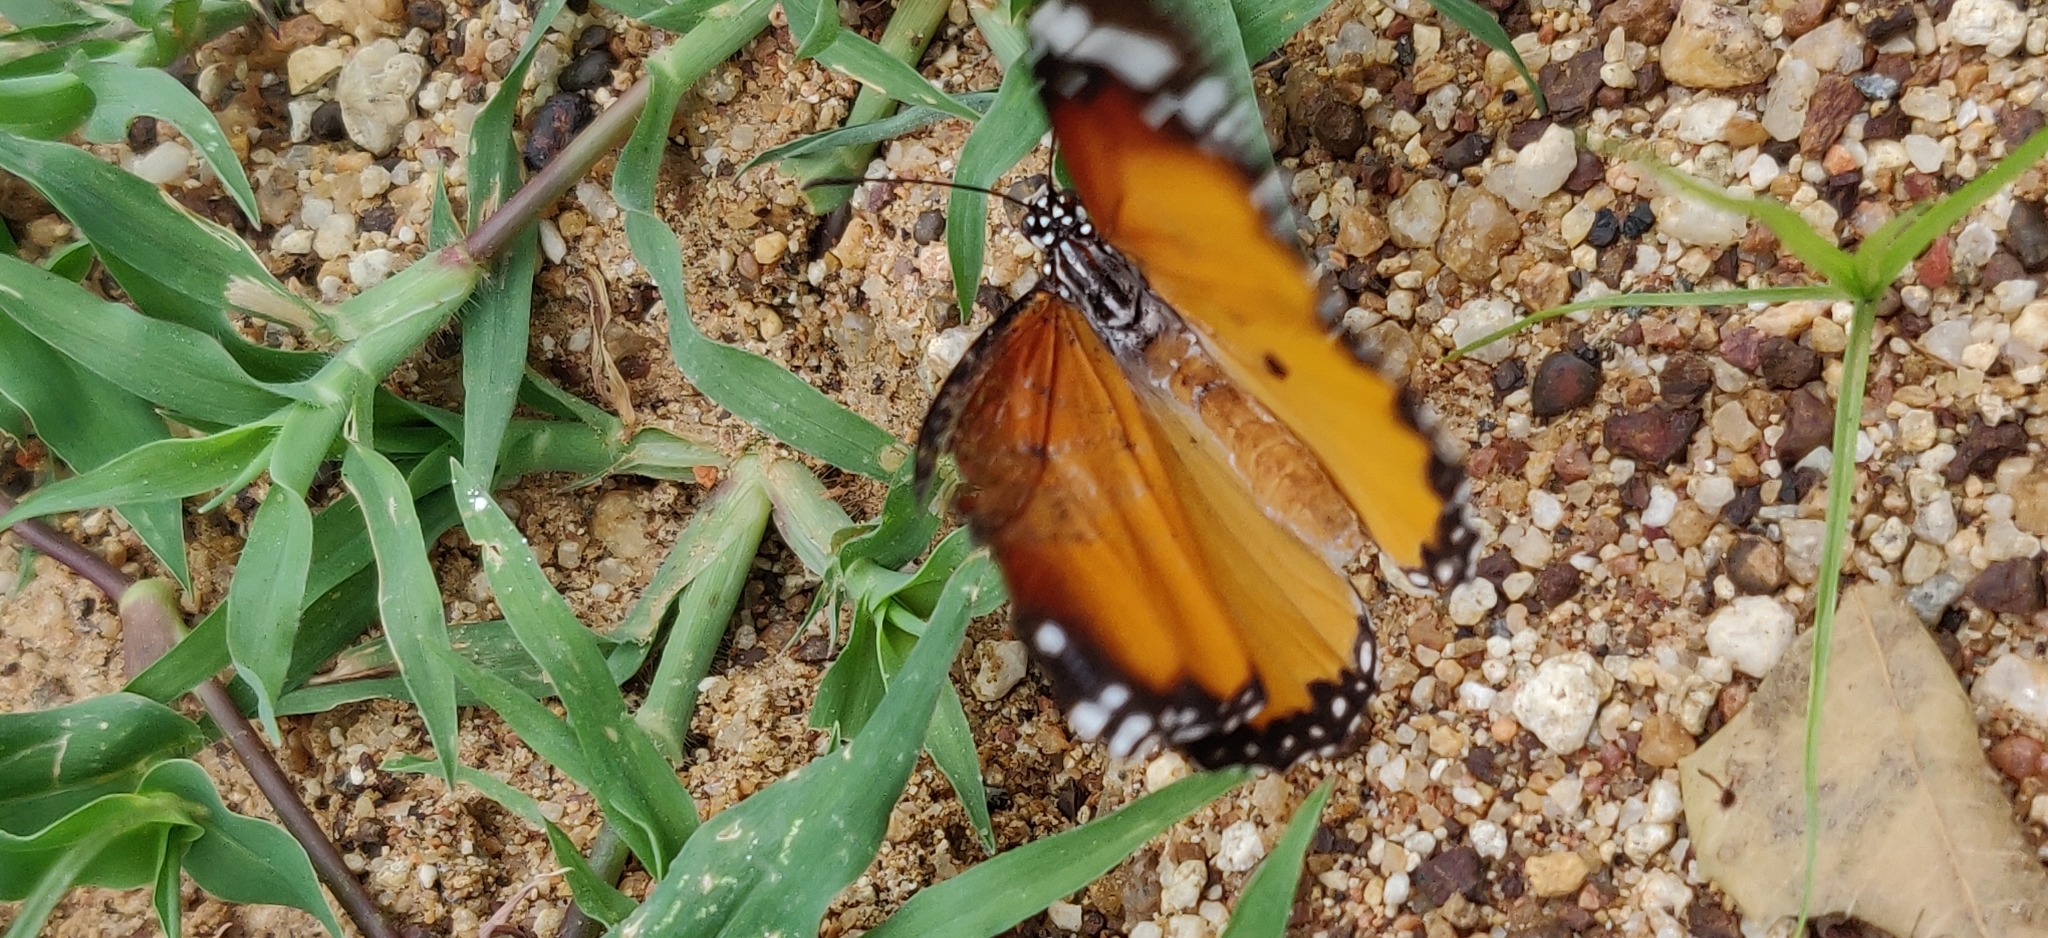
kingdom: Animalia
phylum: Arthropoda
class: Insecta
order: Lepidoptera
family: Nymphalidae
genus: Danaus
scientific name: Danaus chrysippus
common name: Plain tiger
